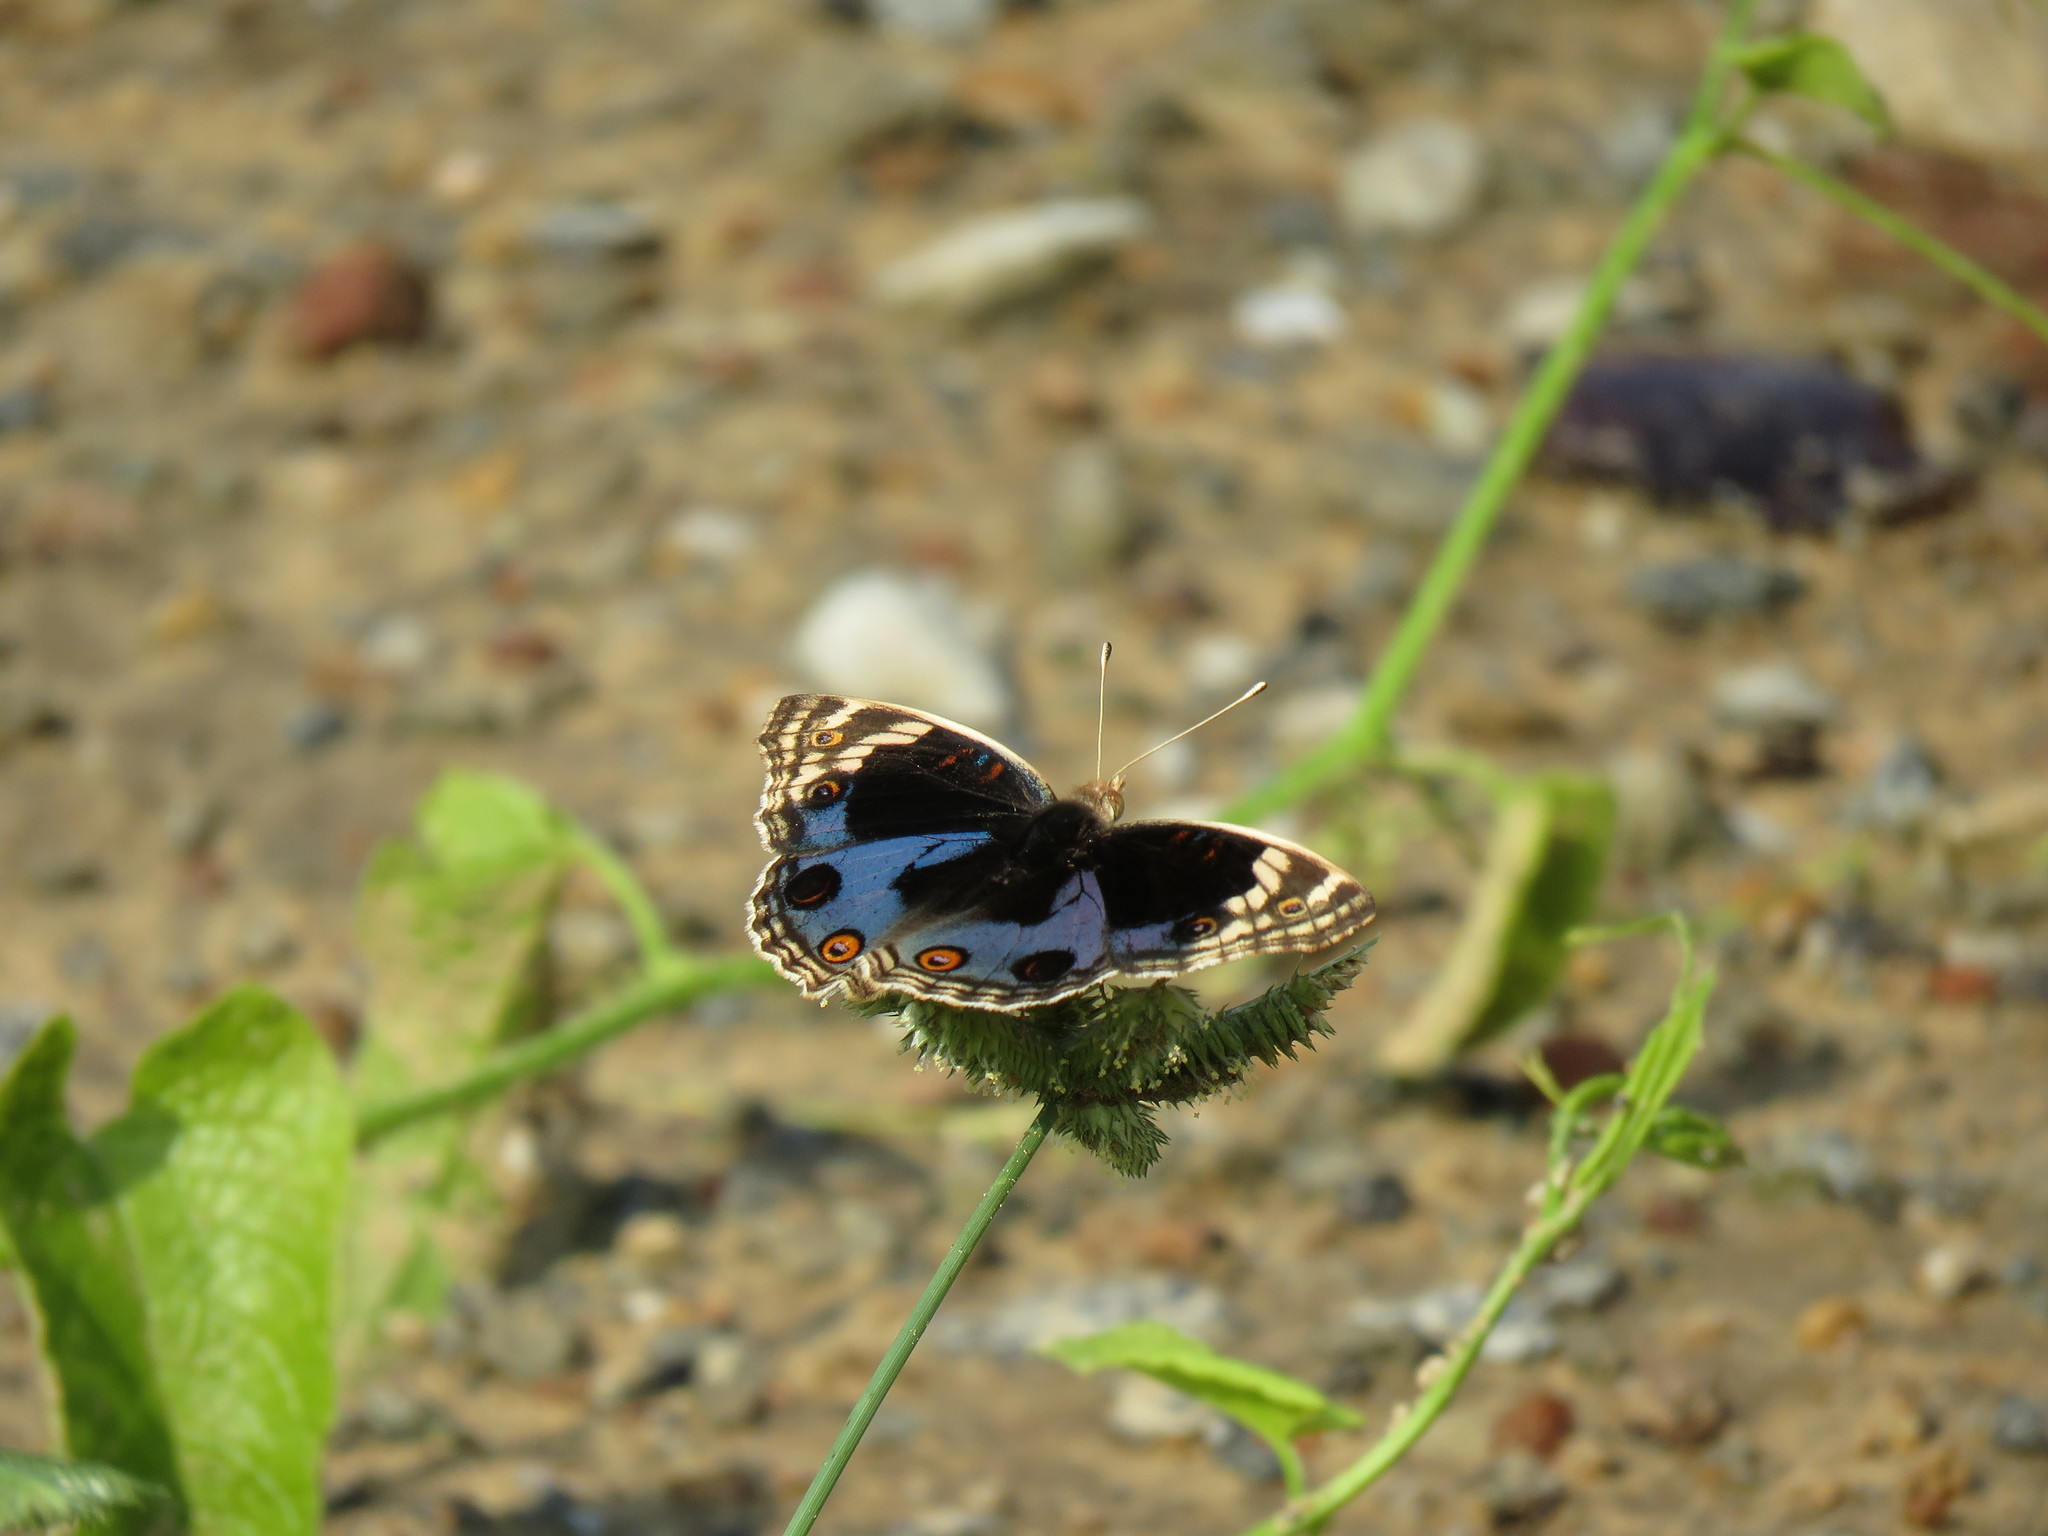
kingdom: Animalia
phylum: Arthropoda
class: Insecta
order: Lepidoptera
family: Nymphalidae
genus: Junonia
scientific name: Junonia orithya
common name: Blue pansy
